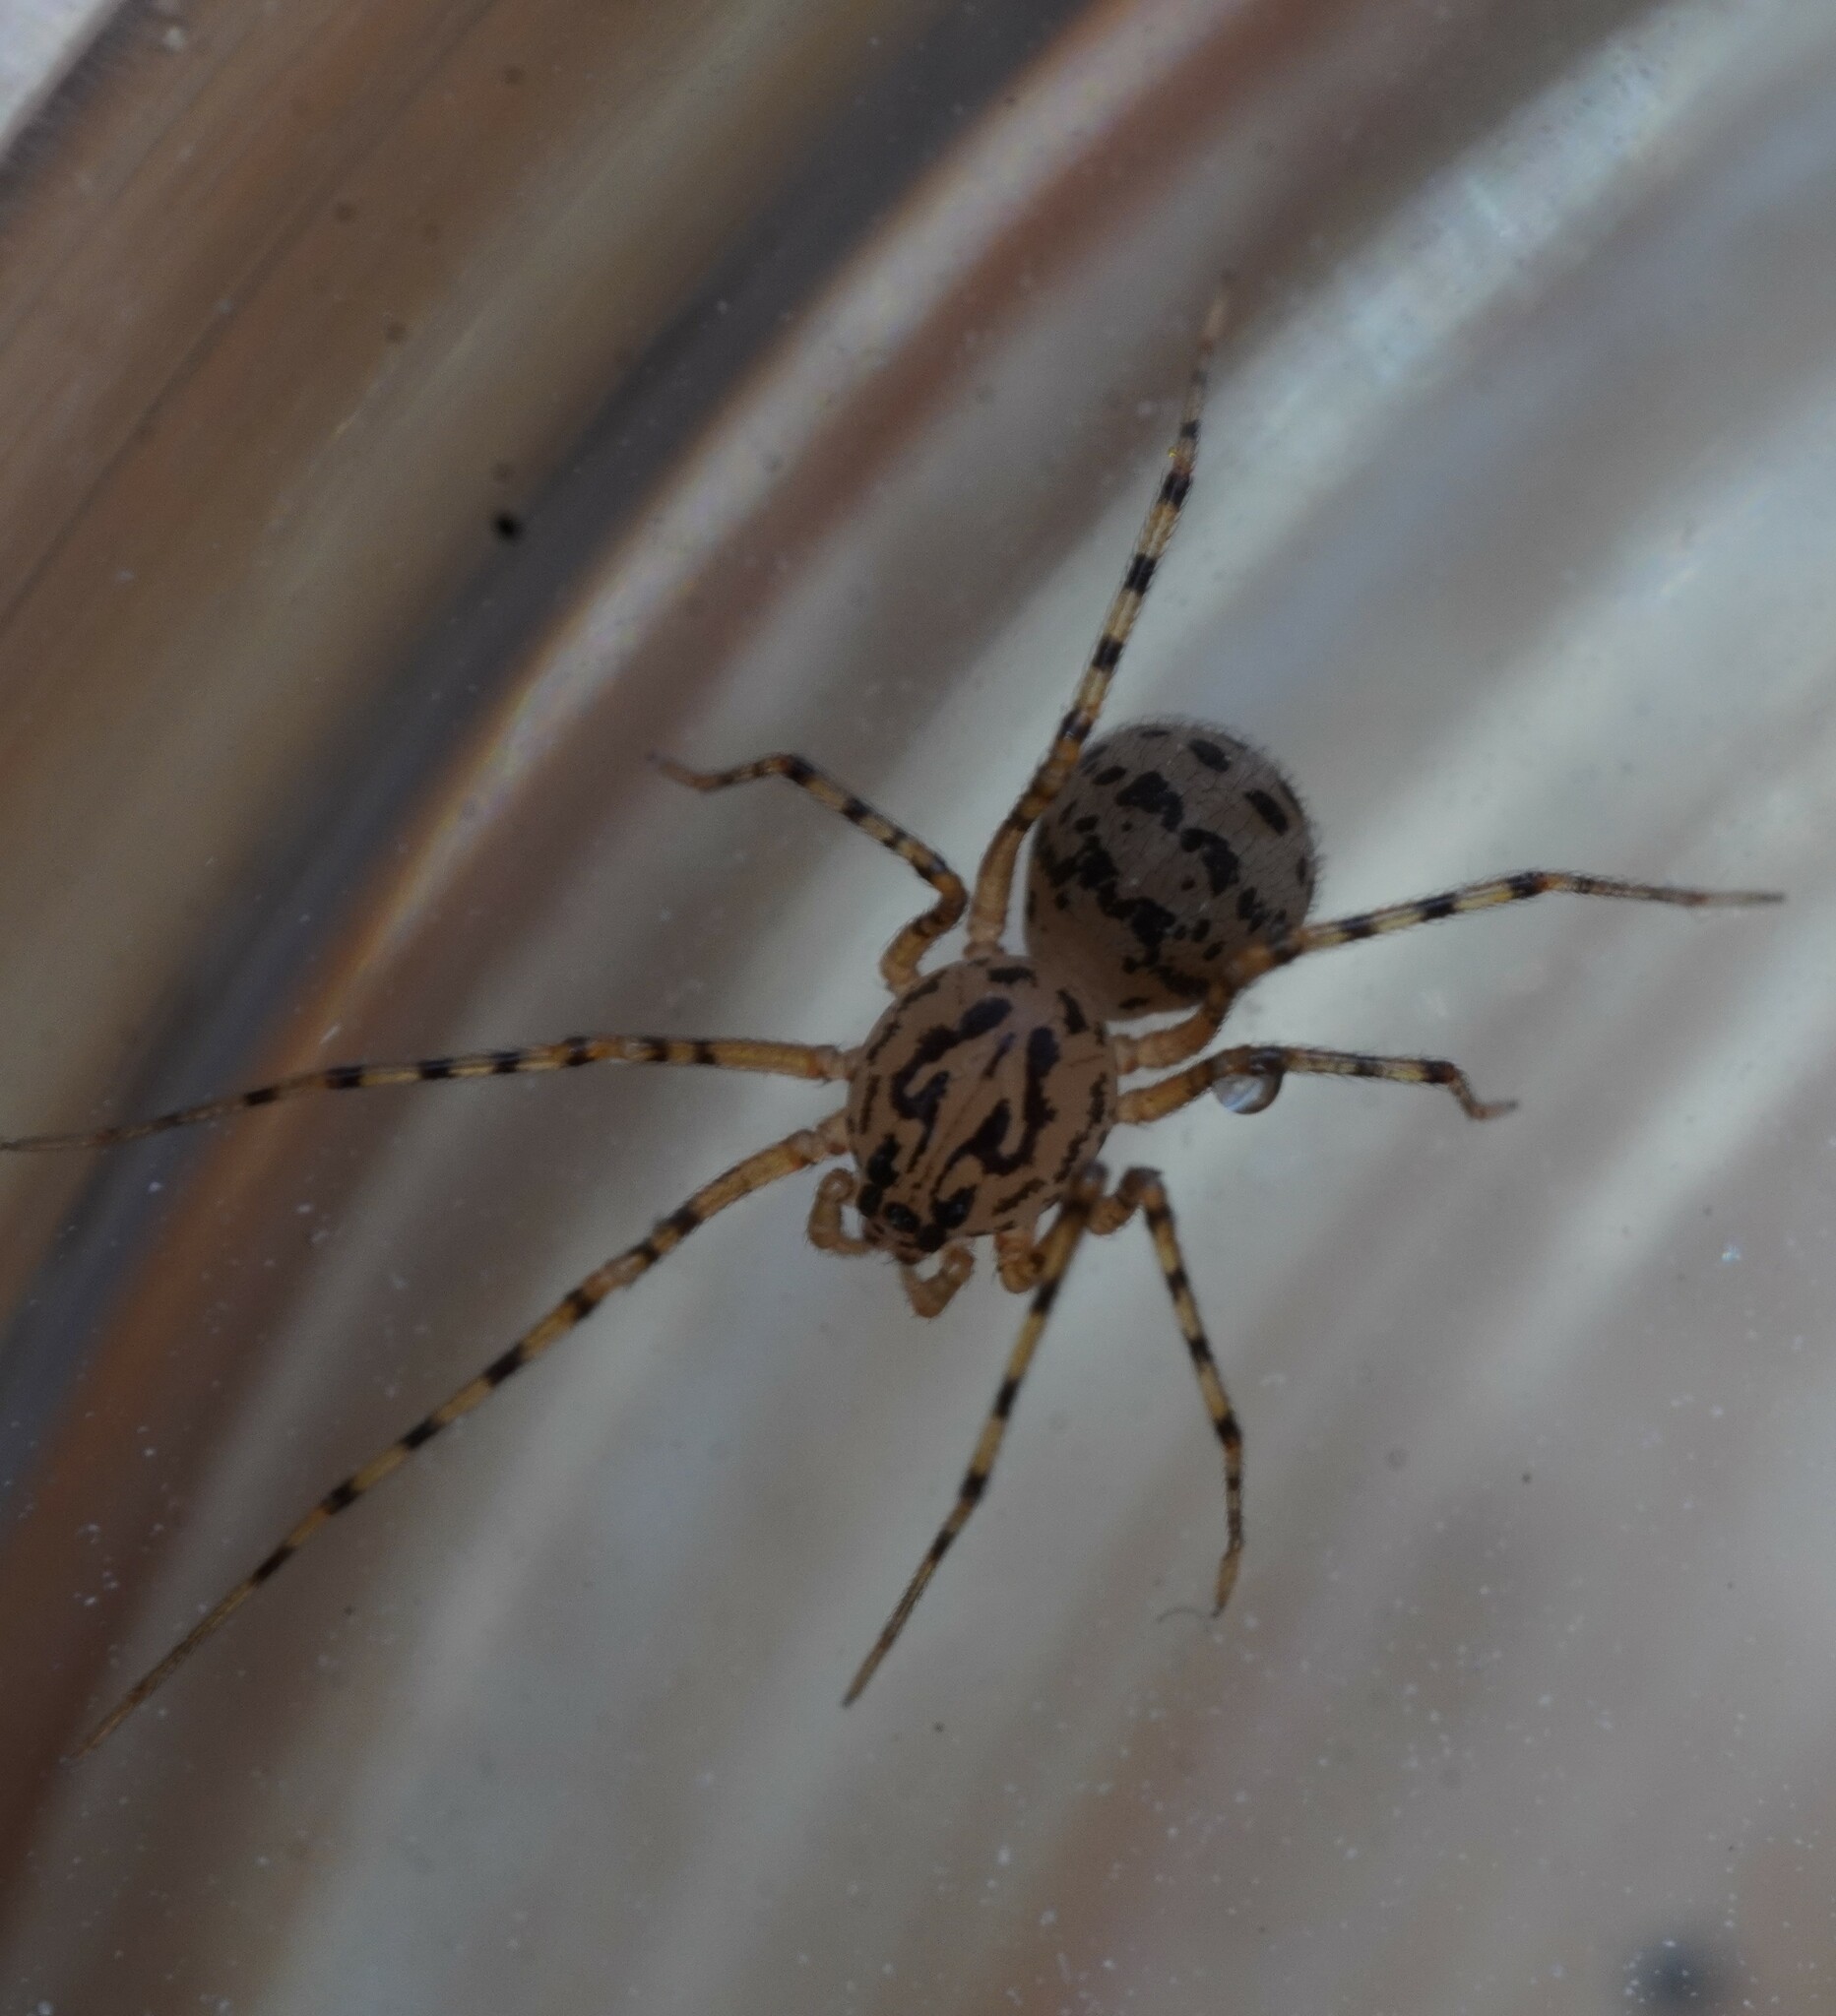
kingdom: Animalia
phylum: Arthropoda
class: Arachnida
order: Araneae
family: Scytodidae
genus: Scytodes
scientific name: Scytodes thoracica
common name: Spitting spider
